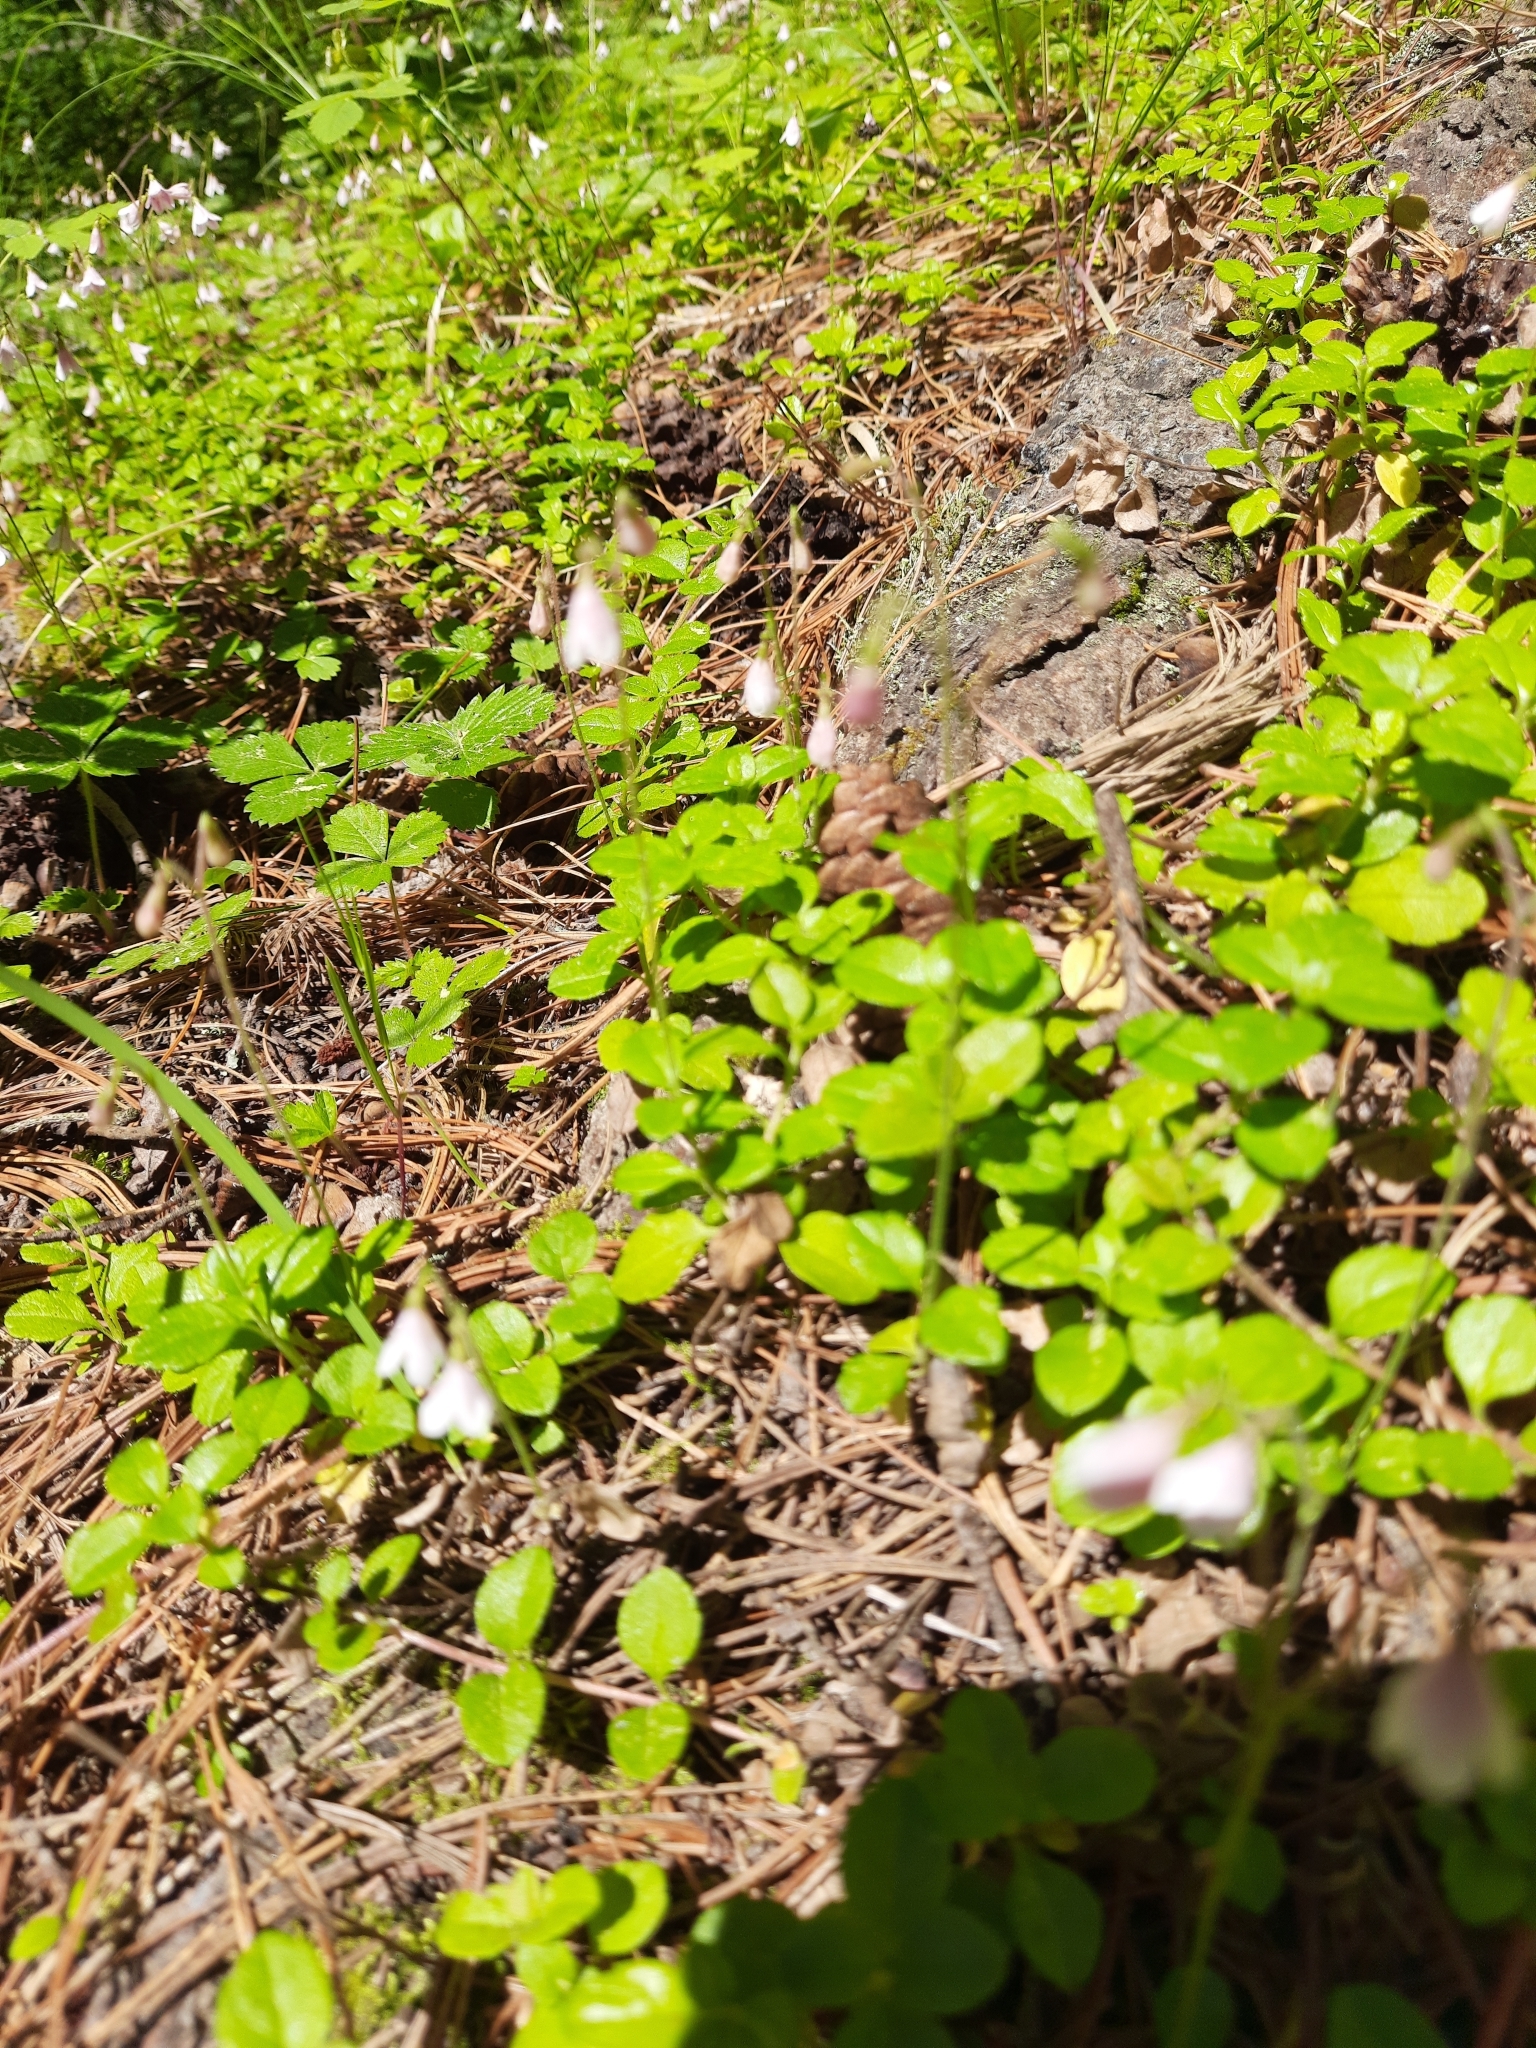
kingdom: Plantae
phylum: Tracheophyta
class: Magnoliopsida
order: Dipsacales
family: Caprifoliaceae
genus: Linnaea
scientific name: Linnaea borealis
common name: Twinflower
